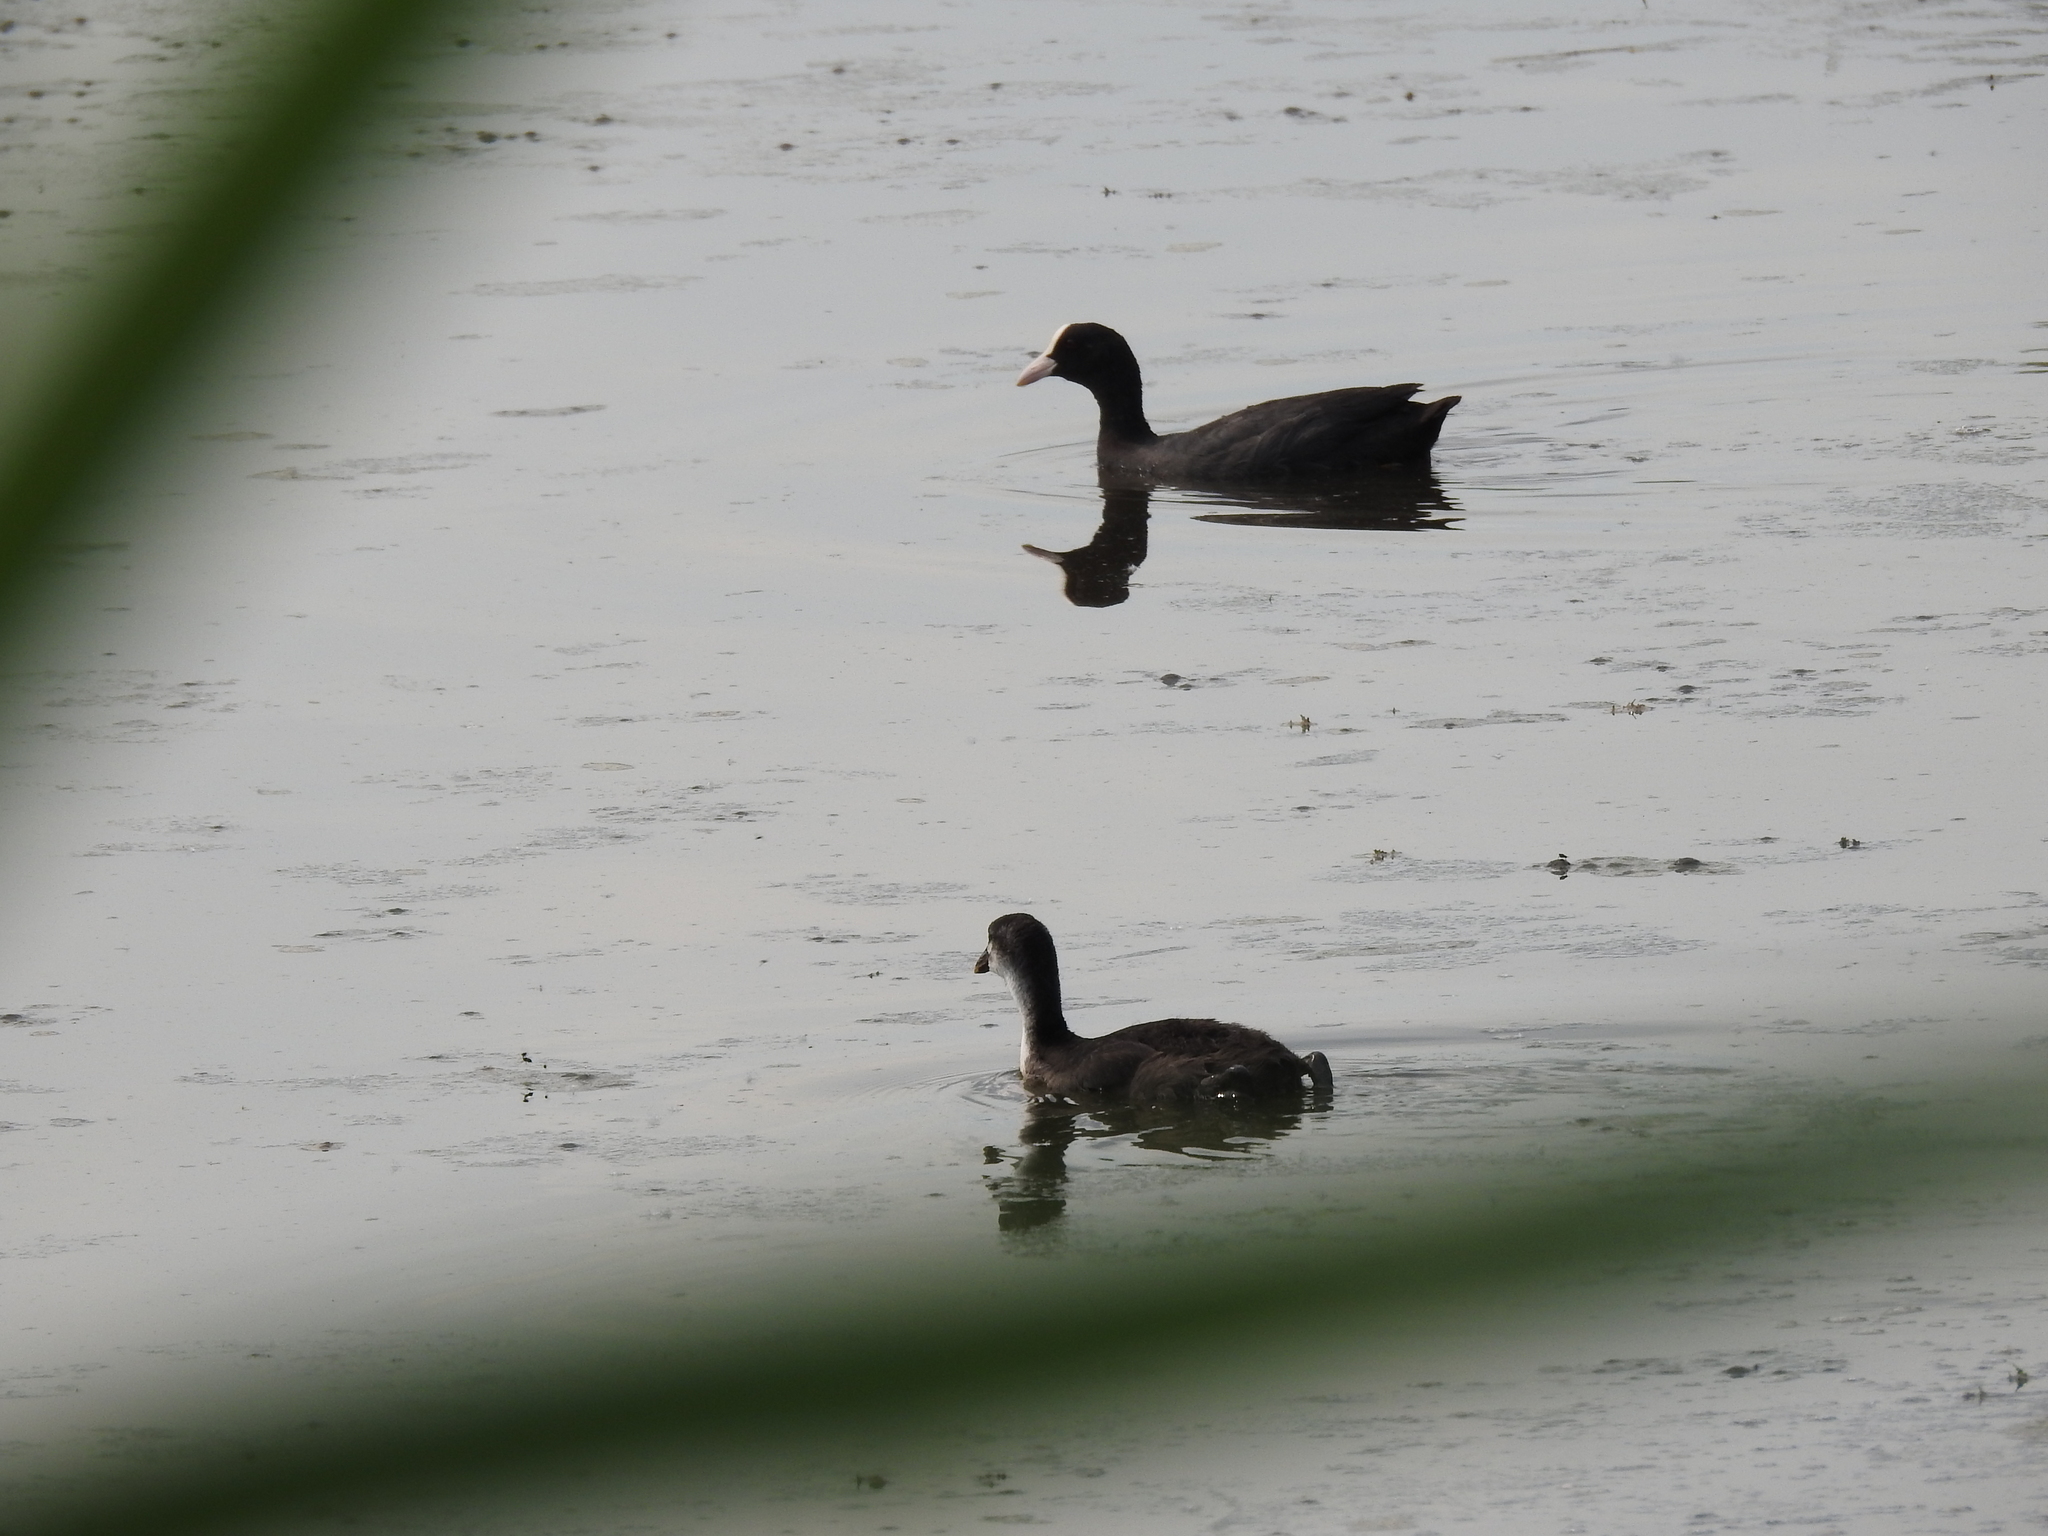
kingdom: Animalia
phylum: Chordata
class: Aves
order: Gruiformes
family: Rallidae
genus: Fulica
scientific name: Fulica atra
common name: Eurasian coot
